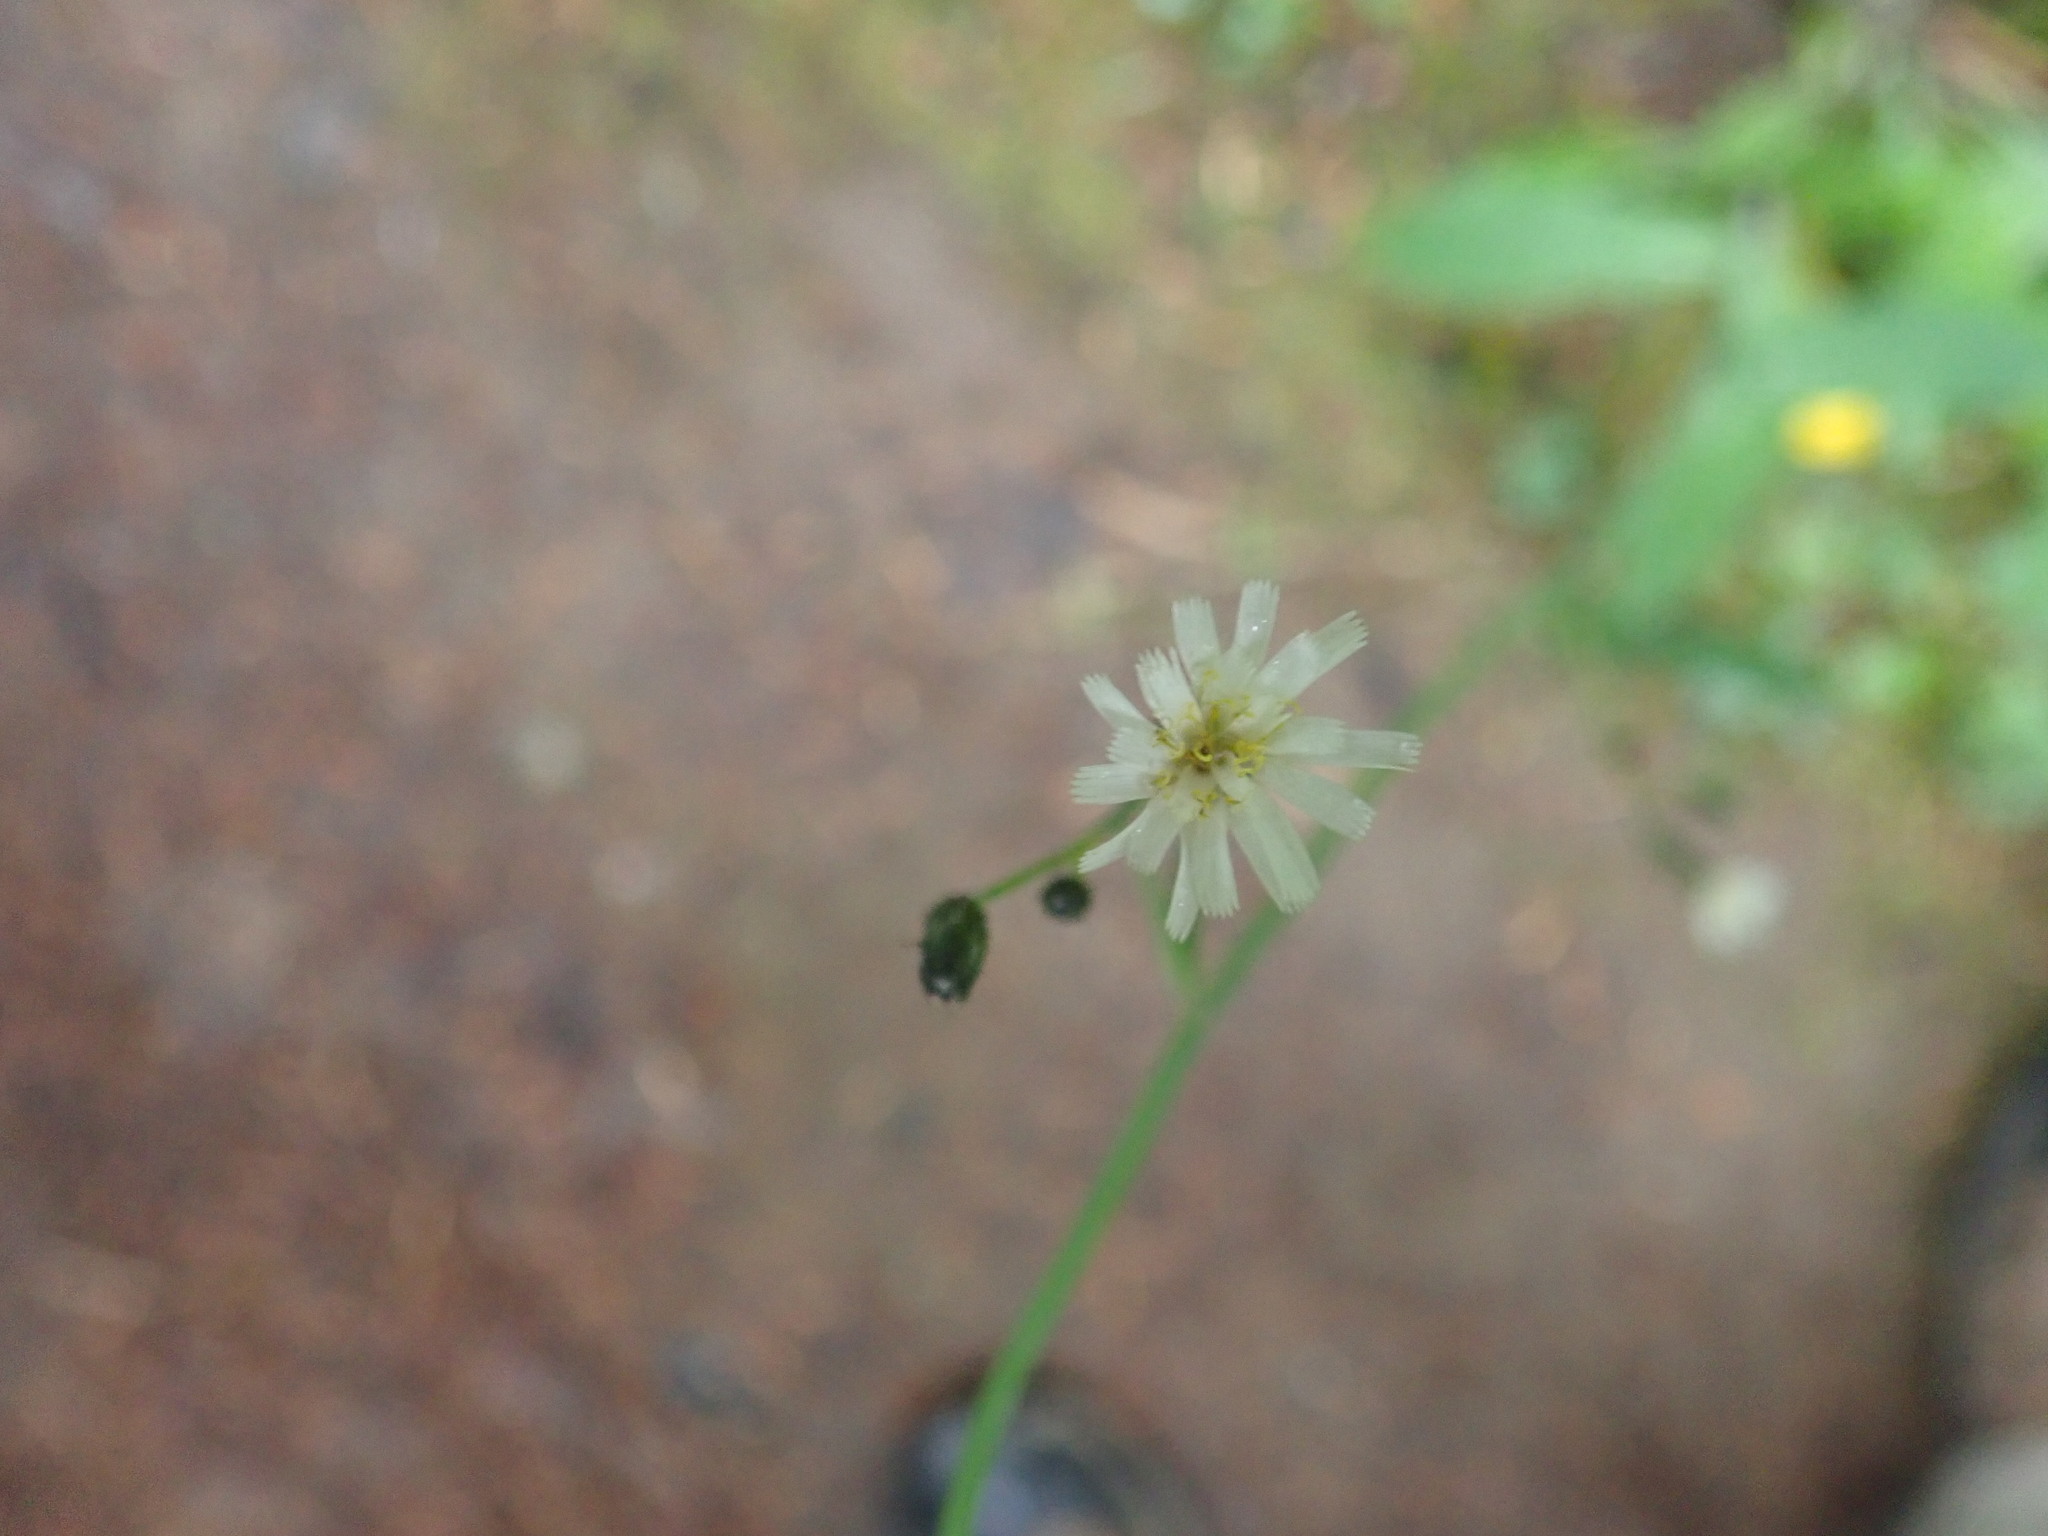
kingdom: Plantae
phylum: Tracheophyta
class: Magnoliopsida
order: Asterales
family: Asteraceae
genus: Hieracium
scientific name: Hieracium albiflorum
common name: White hawkweed
